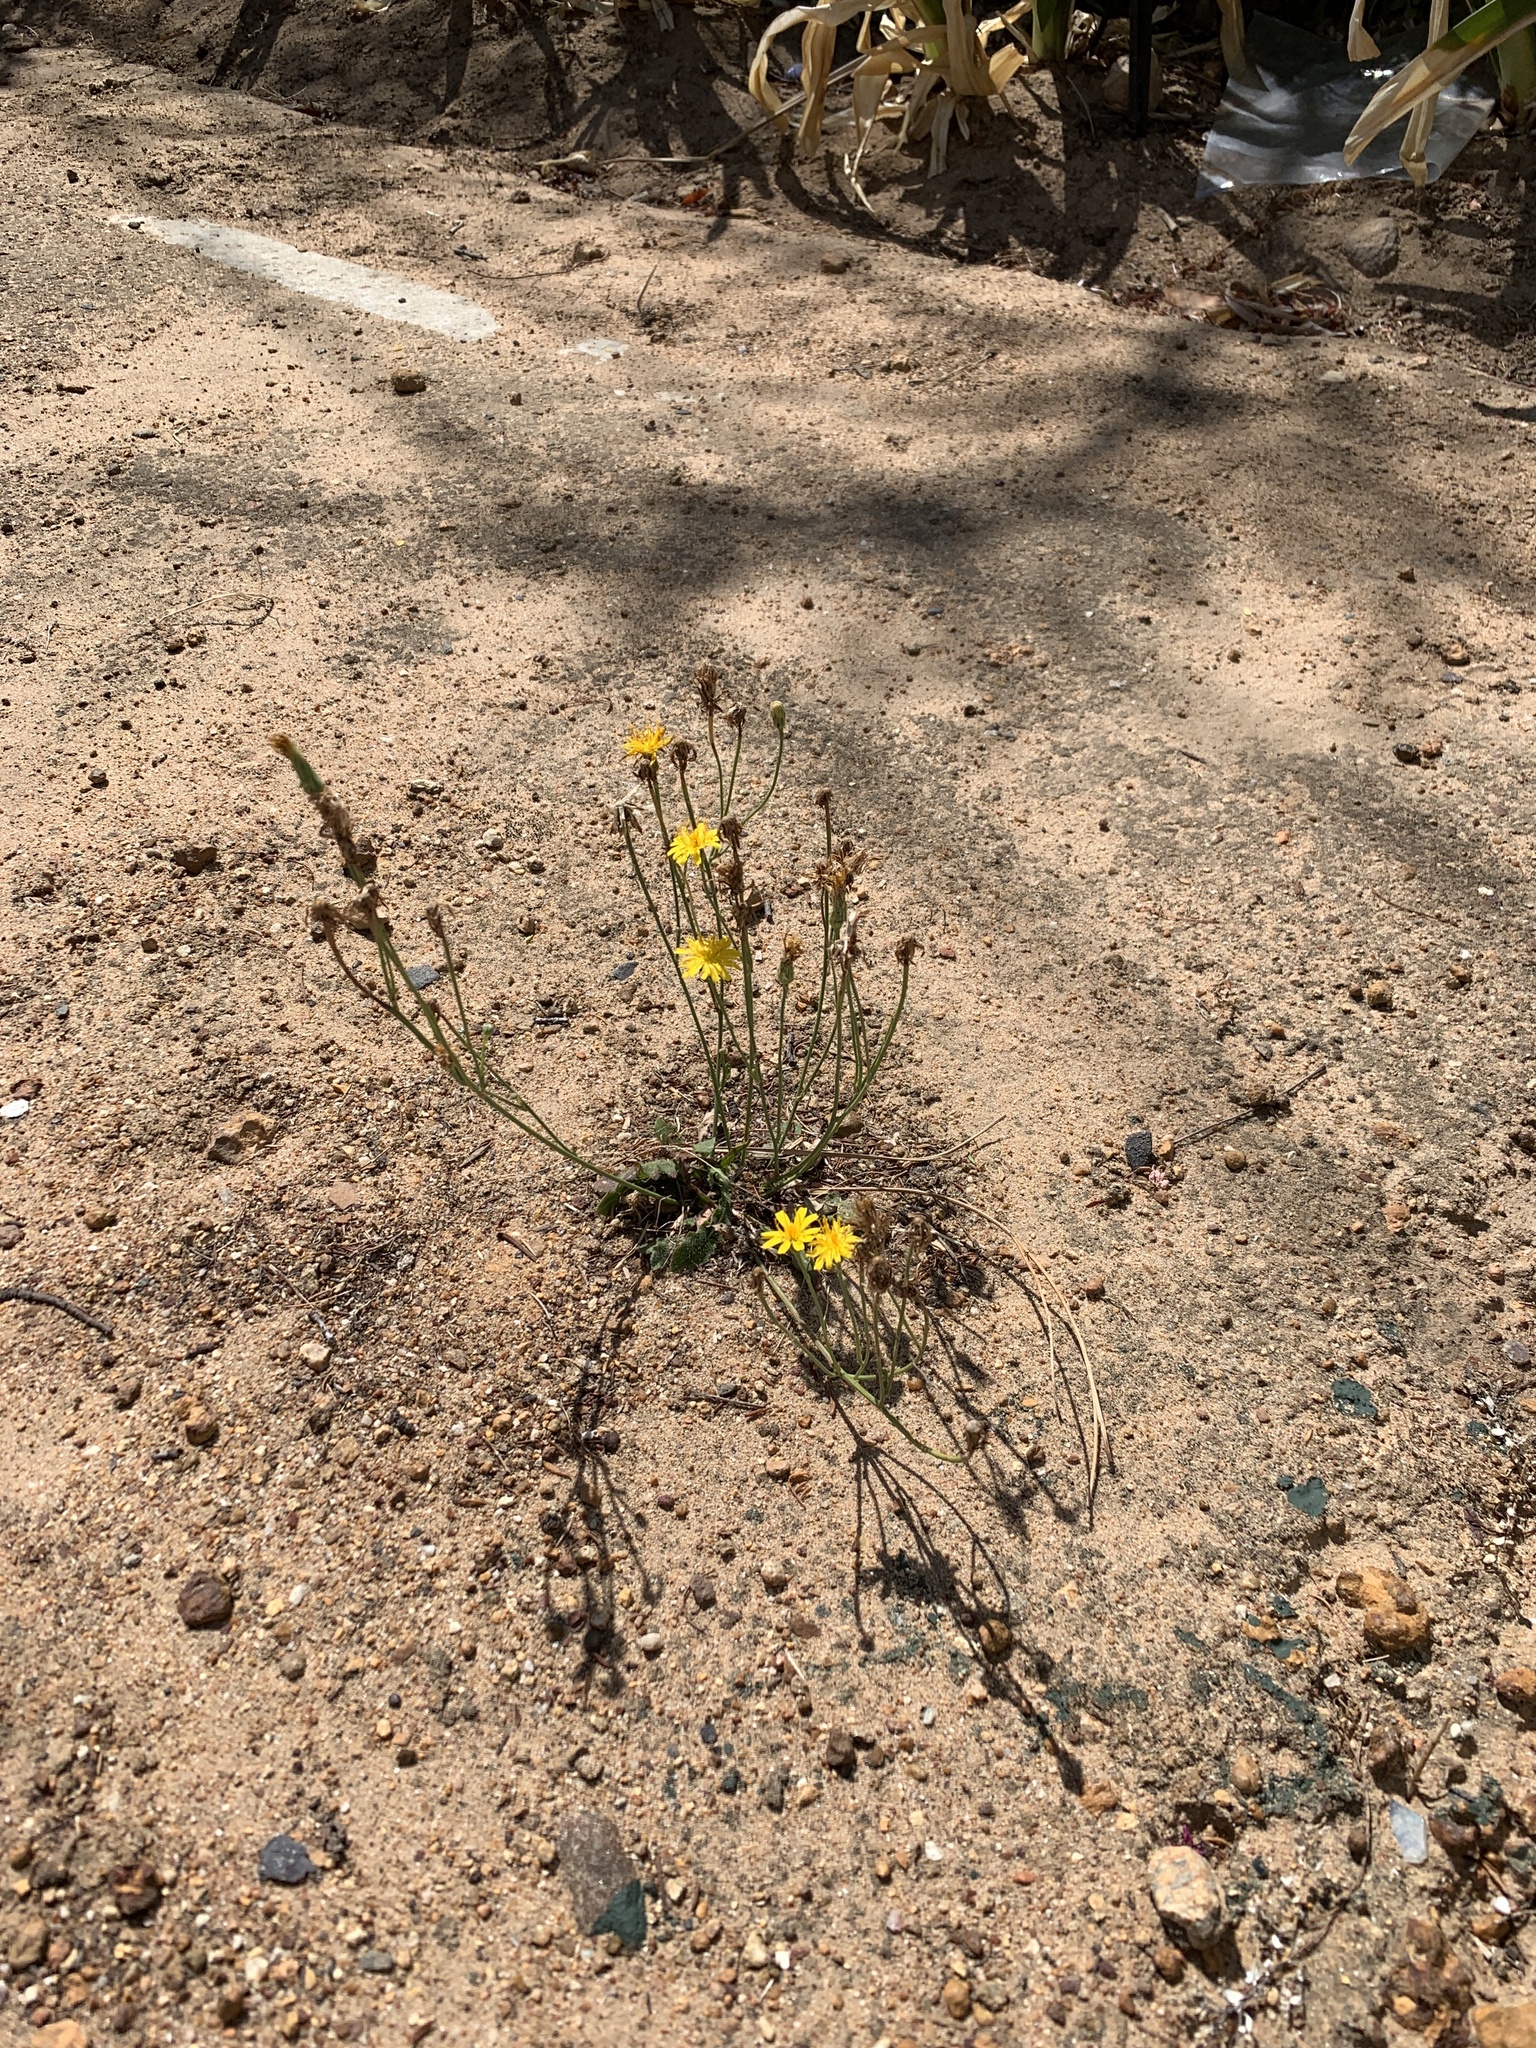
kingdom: Plantae
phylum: Tracheophyta
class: Magnoliopsida
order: Asterales
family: Asteraceae
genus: Hypochaeris
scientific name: Hypochaeris radicata
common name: Flatweed
